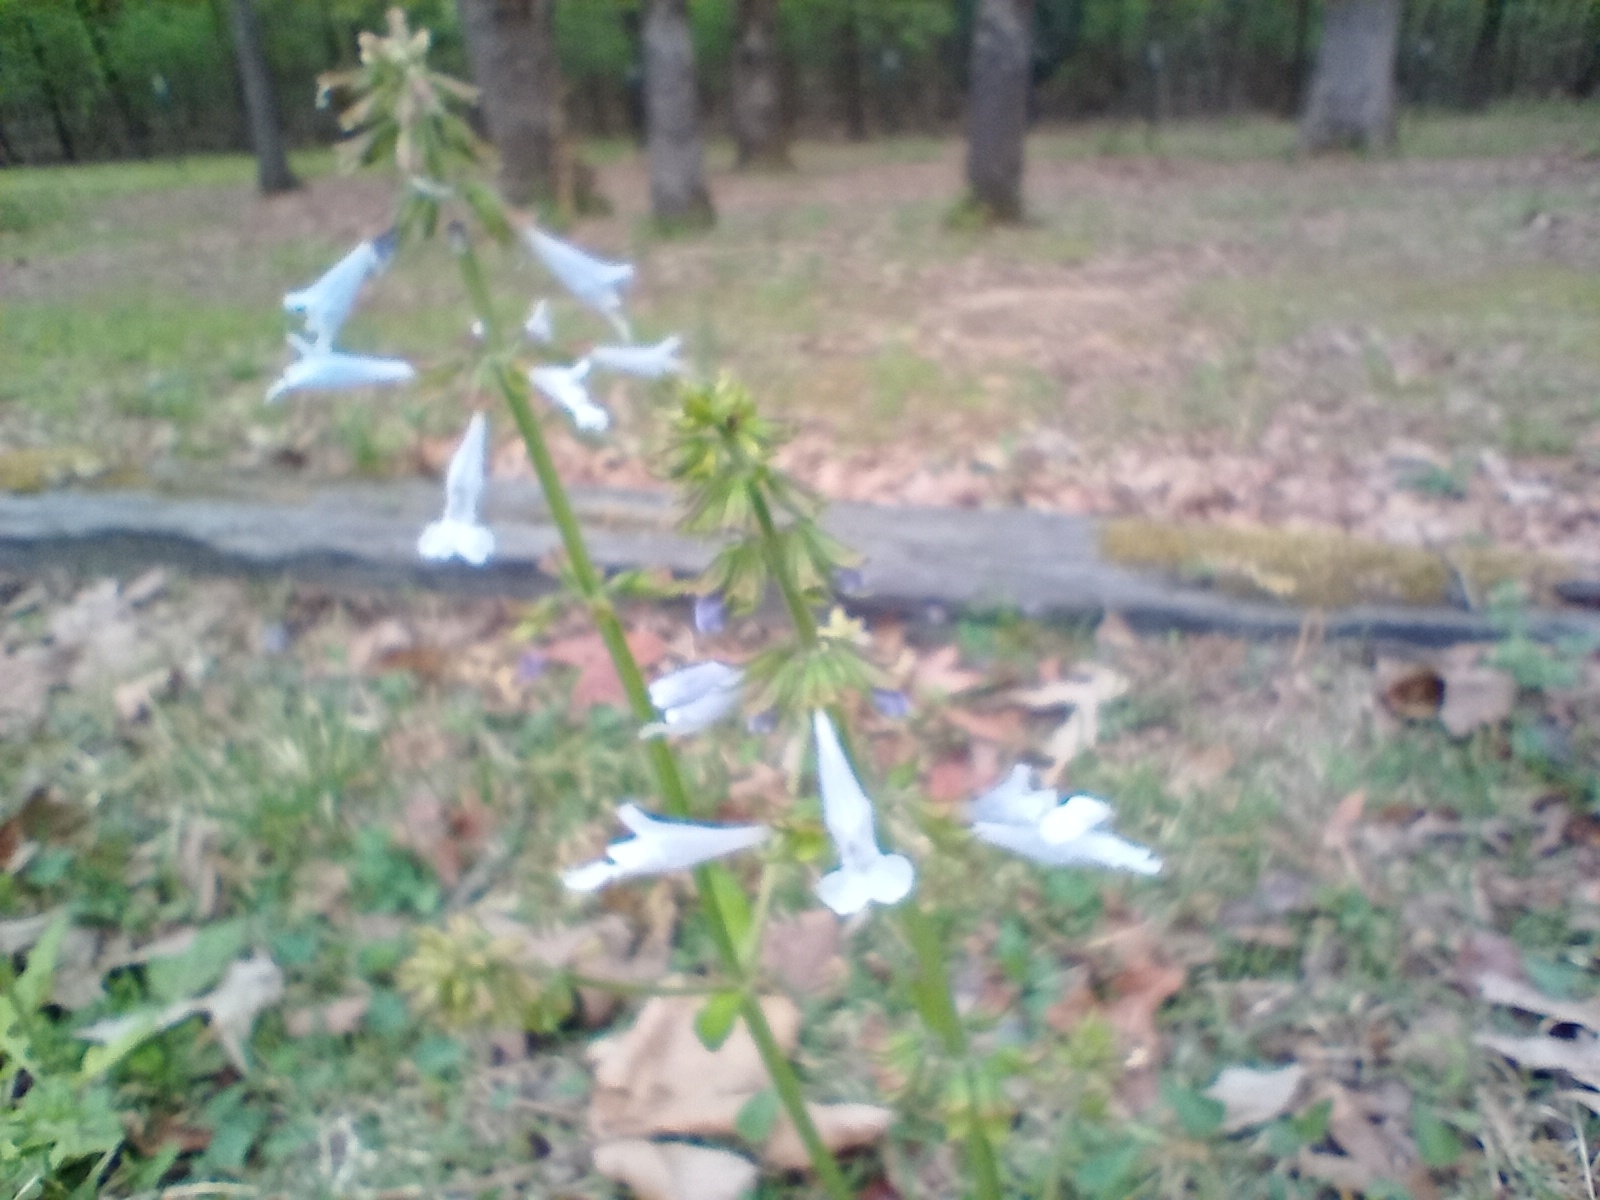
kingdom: Plantae
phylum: Tracheophyta
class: Magnoliopsida
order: Lamiales
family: Lamiaceae
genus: Salvia
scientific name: Salvia lyrata
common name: Cancerweed
